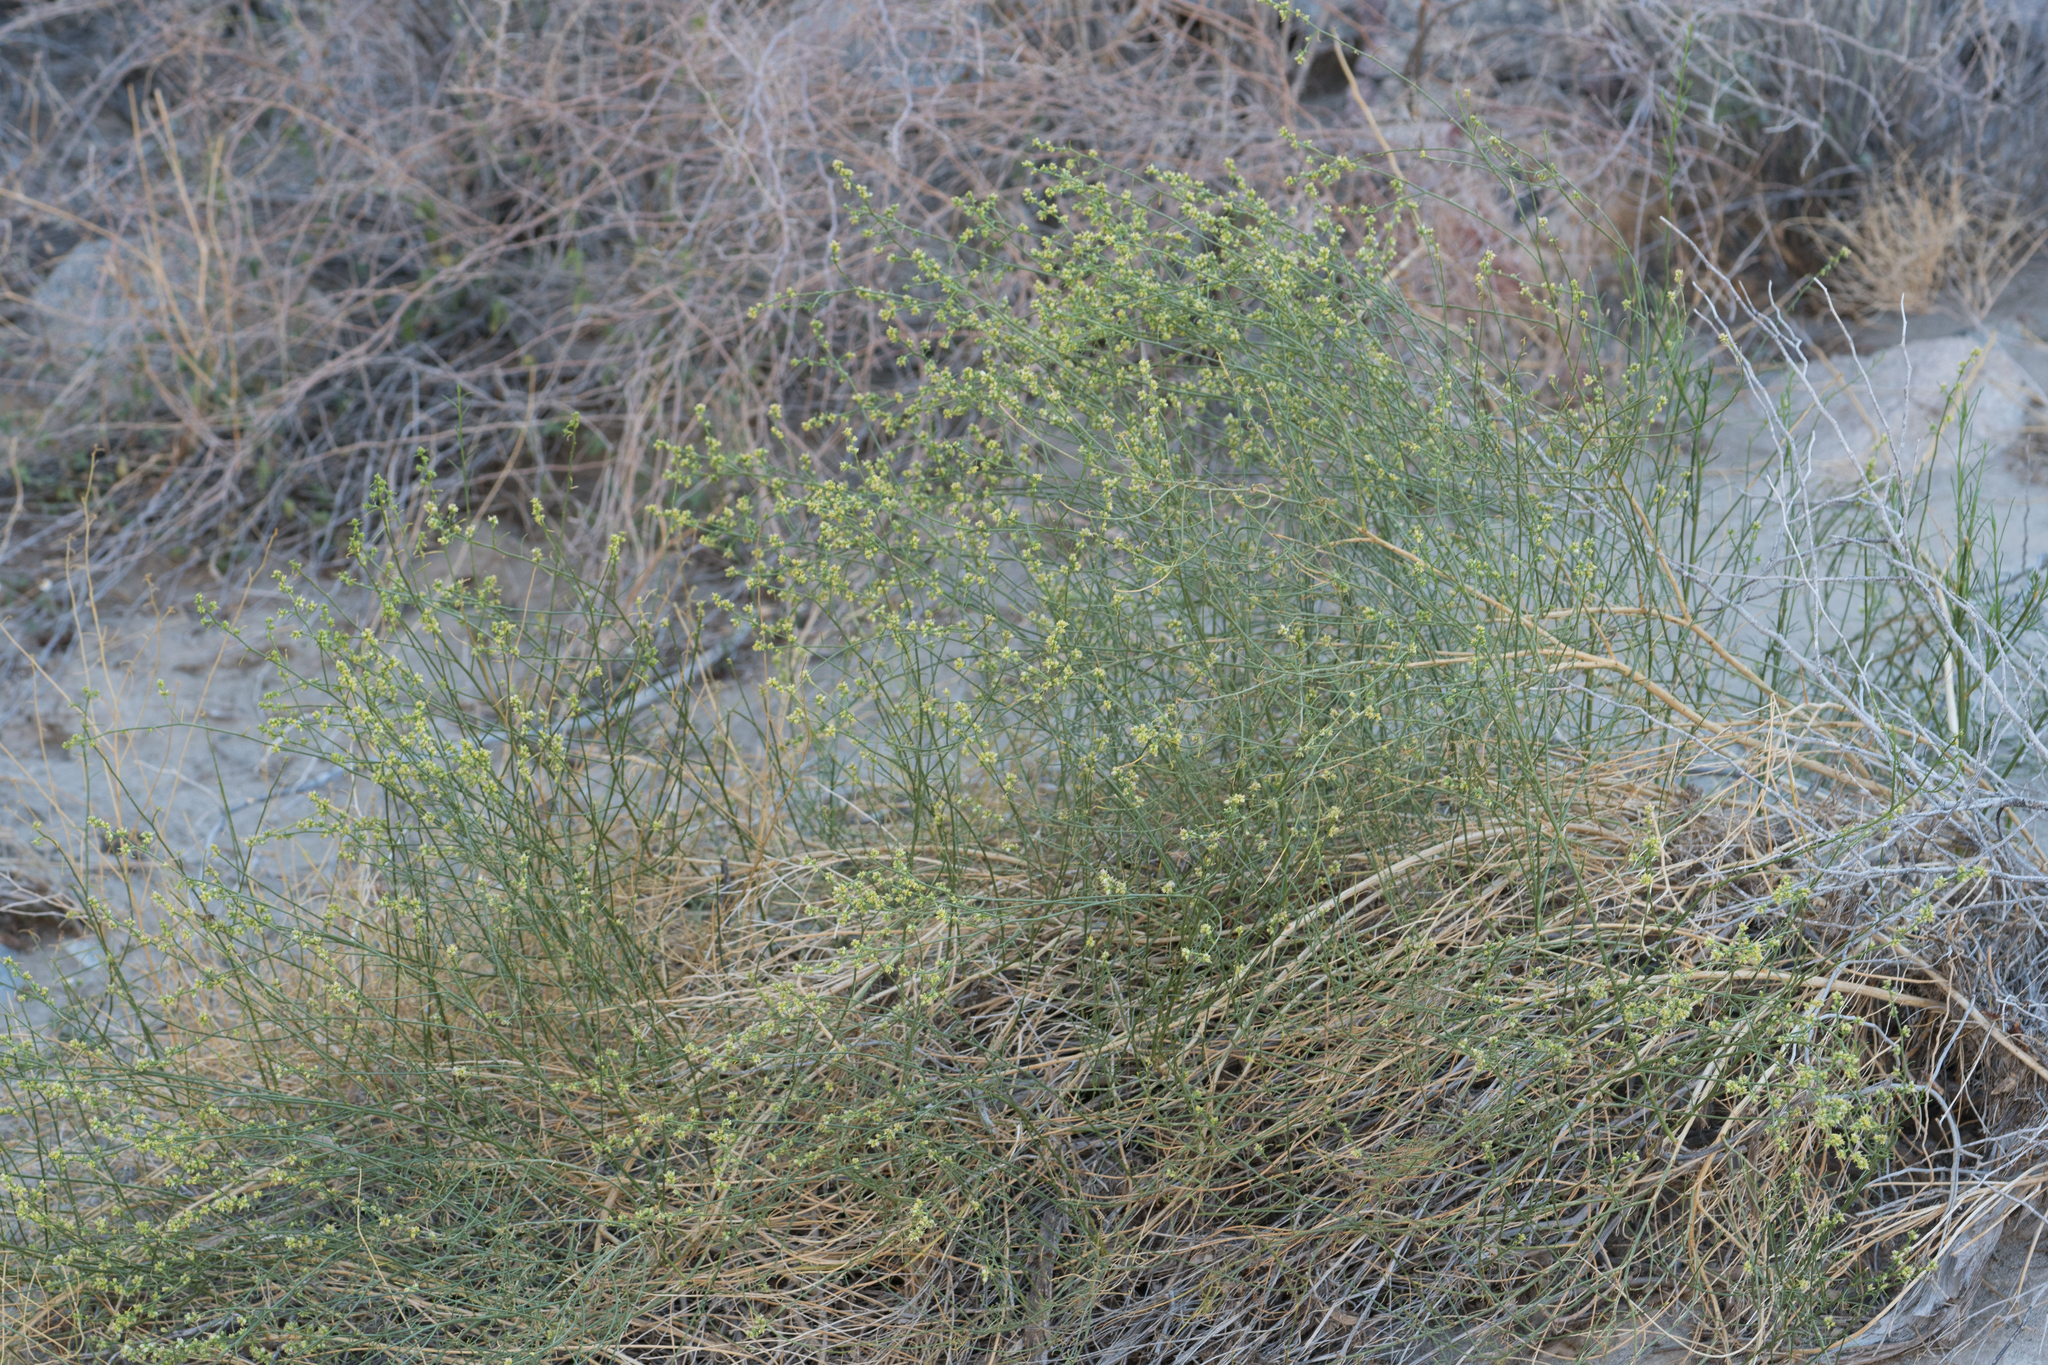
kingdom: Plantae
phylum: Tracheophyta
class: Magnoliopsida
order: Asterales
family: Asteraceae
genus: Ambrosia
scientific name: Ambrosia salsola
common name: Burrobrush
